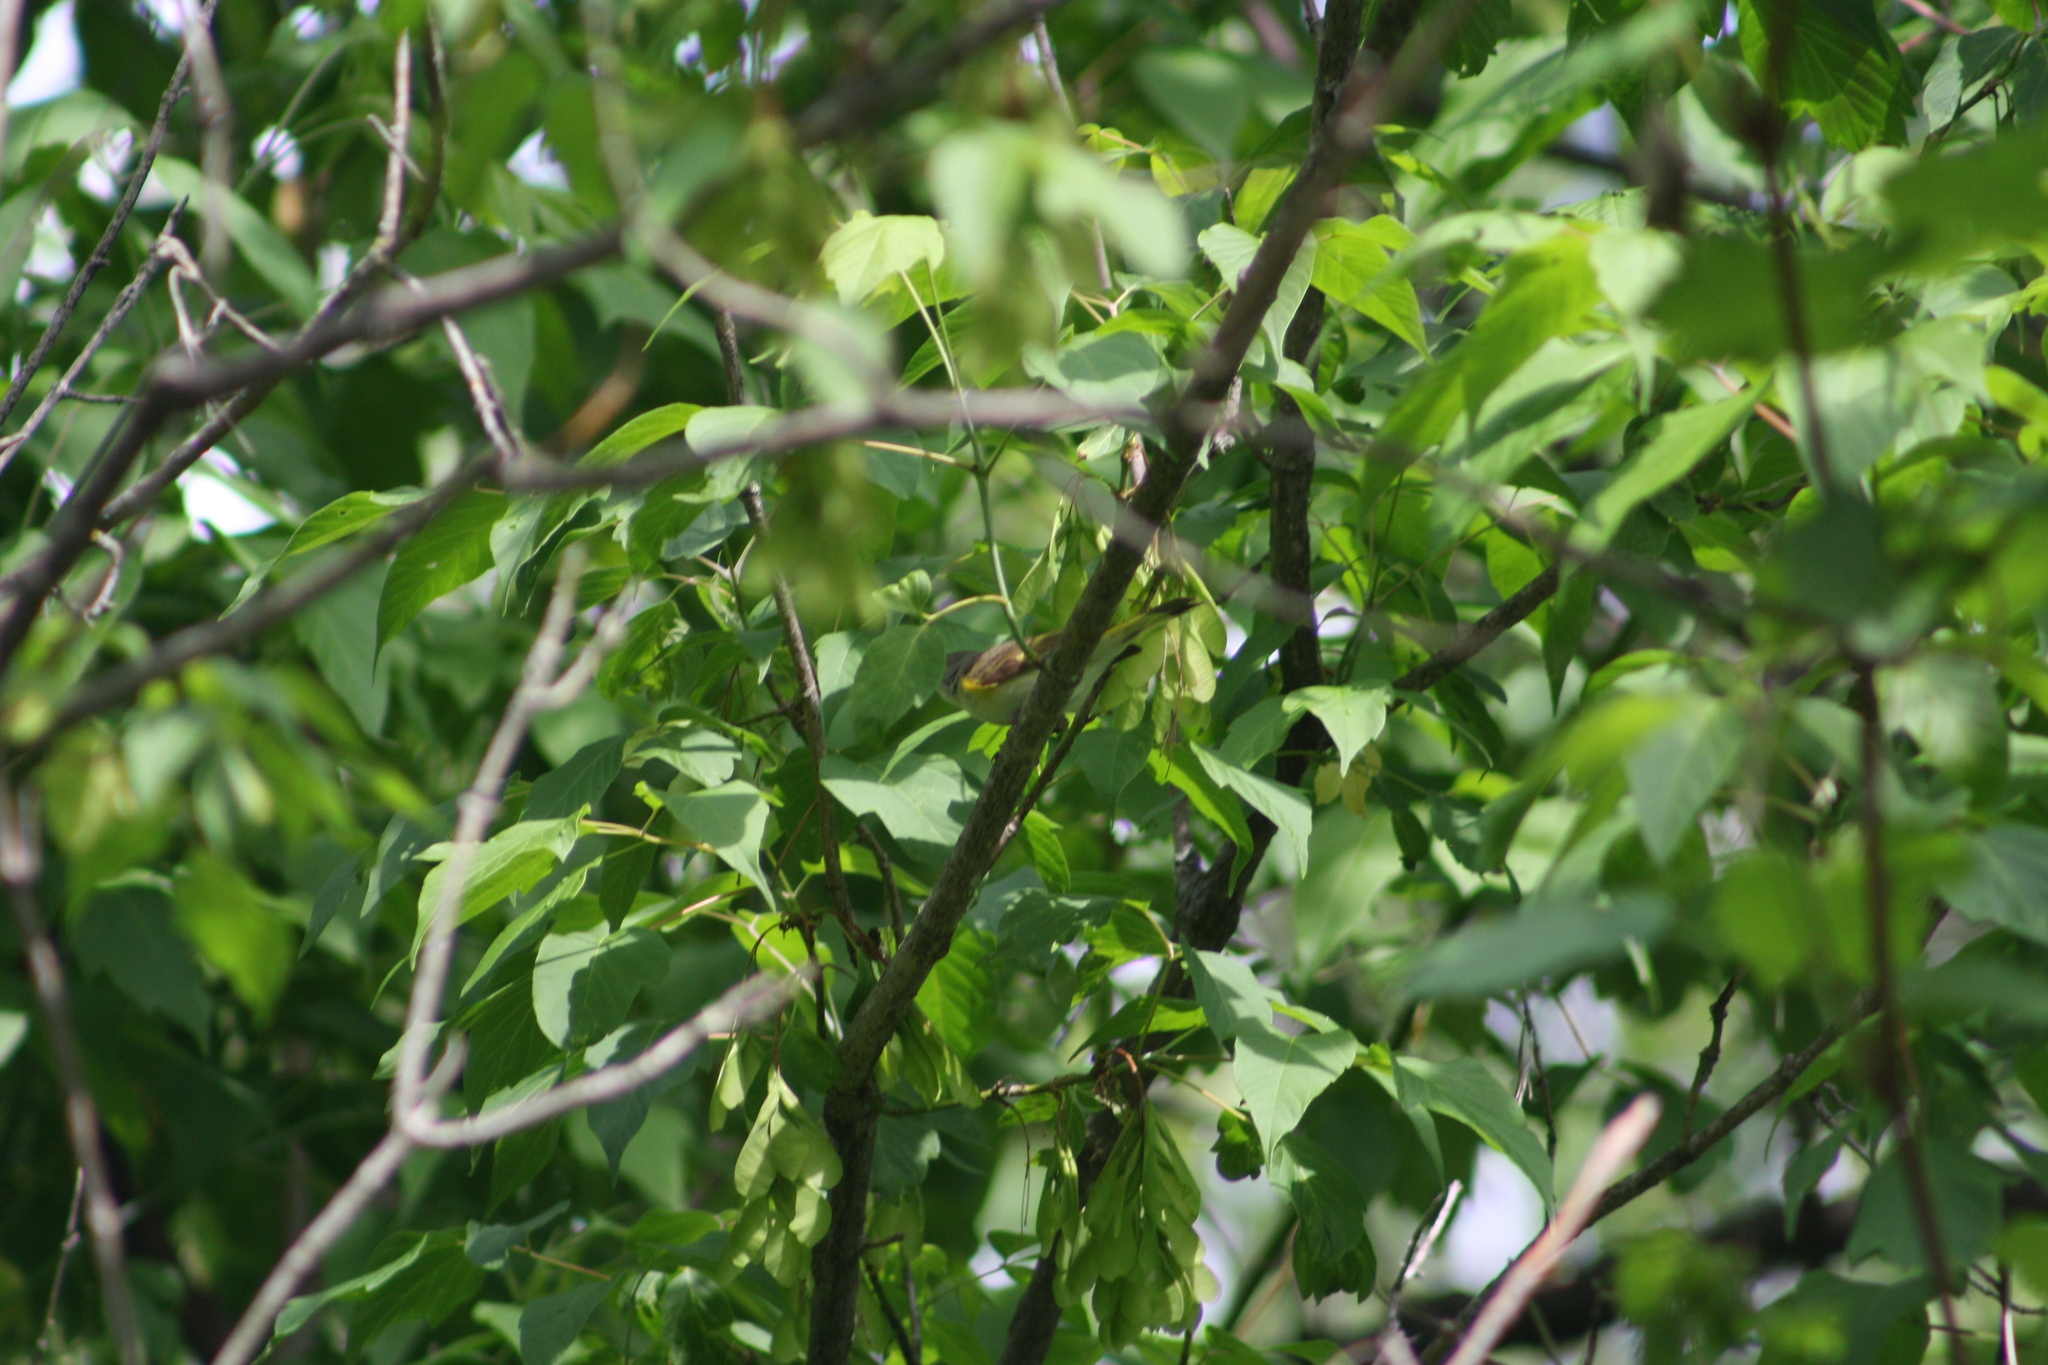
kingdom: Animalia
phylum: Chordata
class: Aves
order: Passeriformes
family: Parulidae
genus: Setophaga
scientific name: Setophaga ruticilla
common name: American redstart
